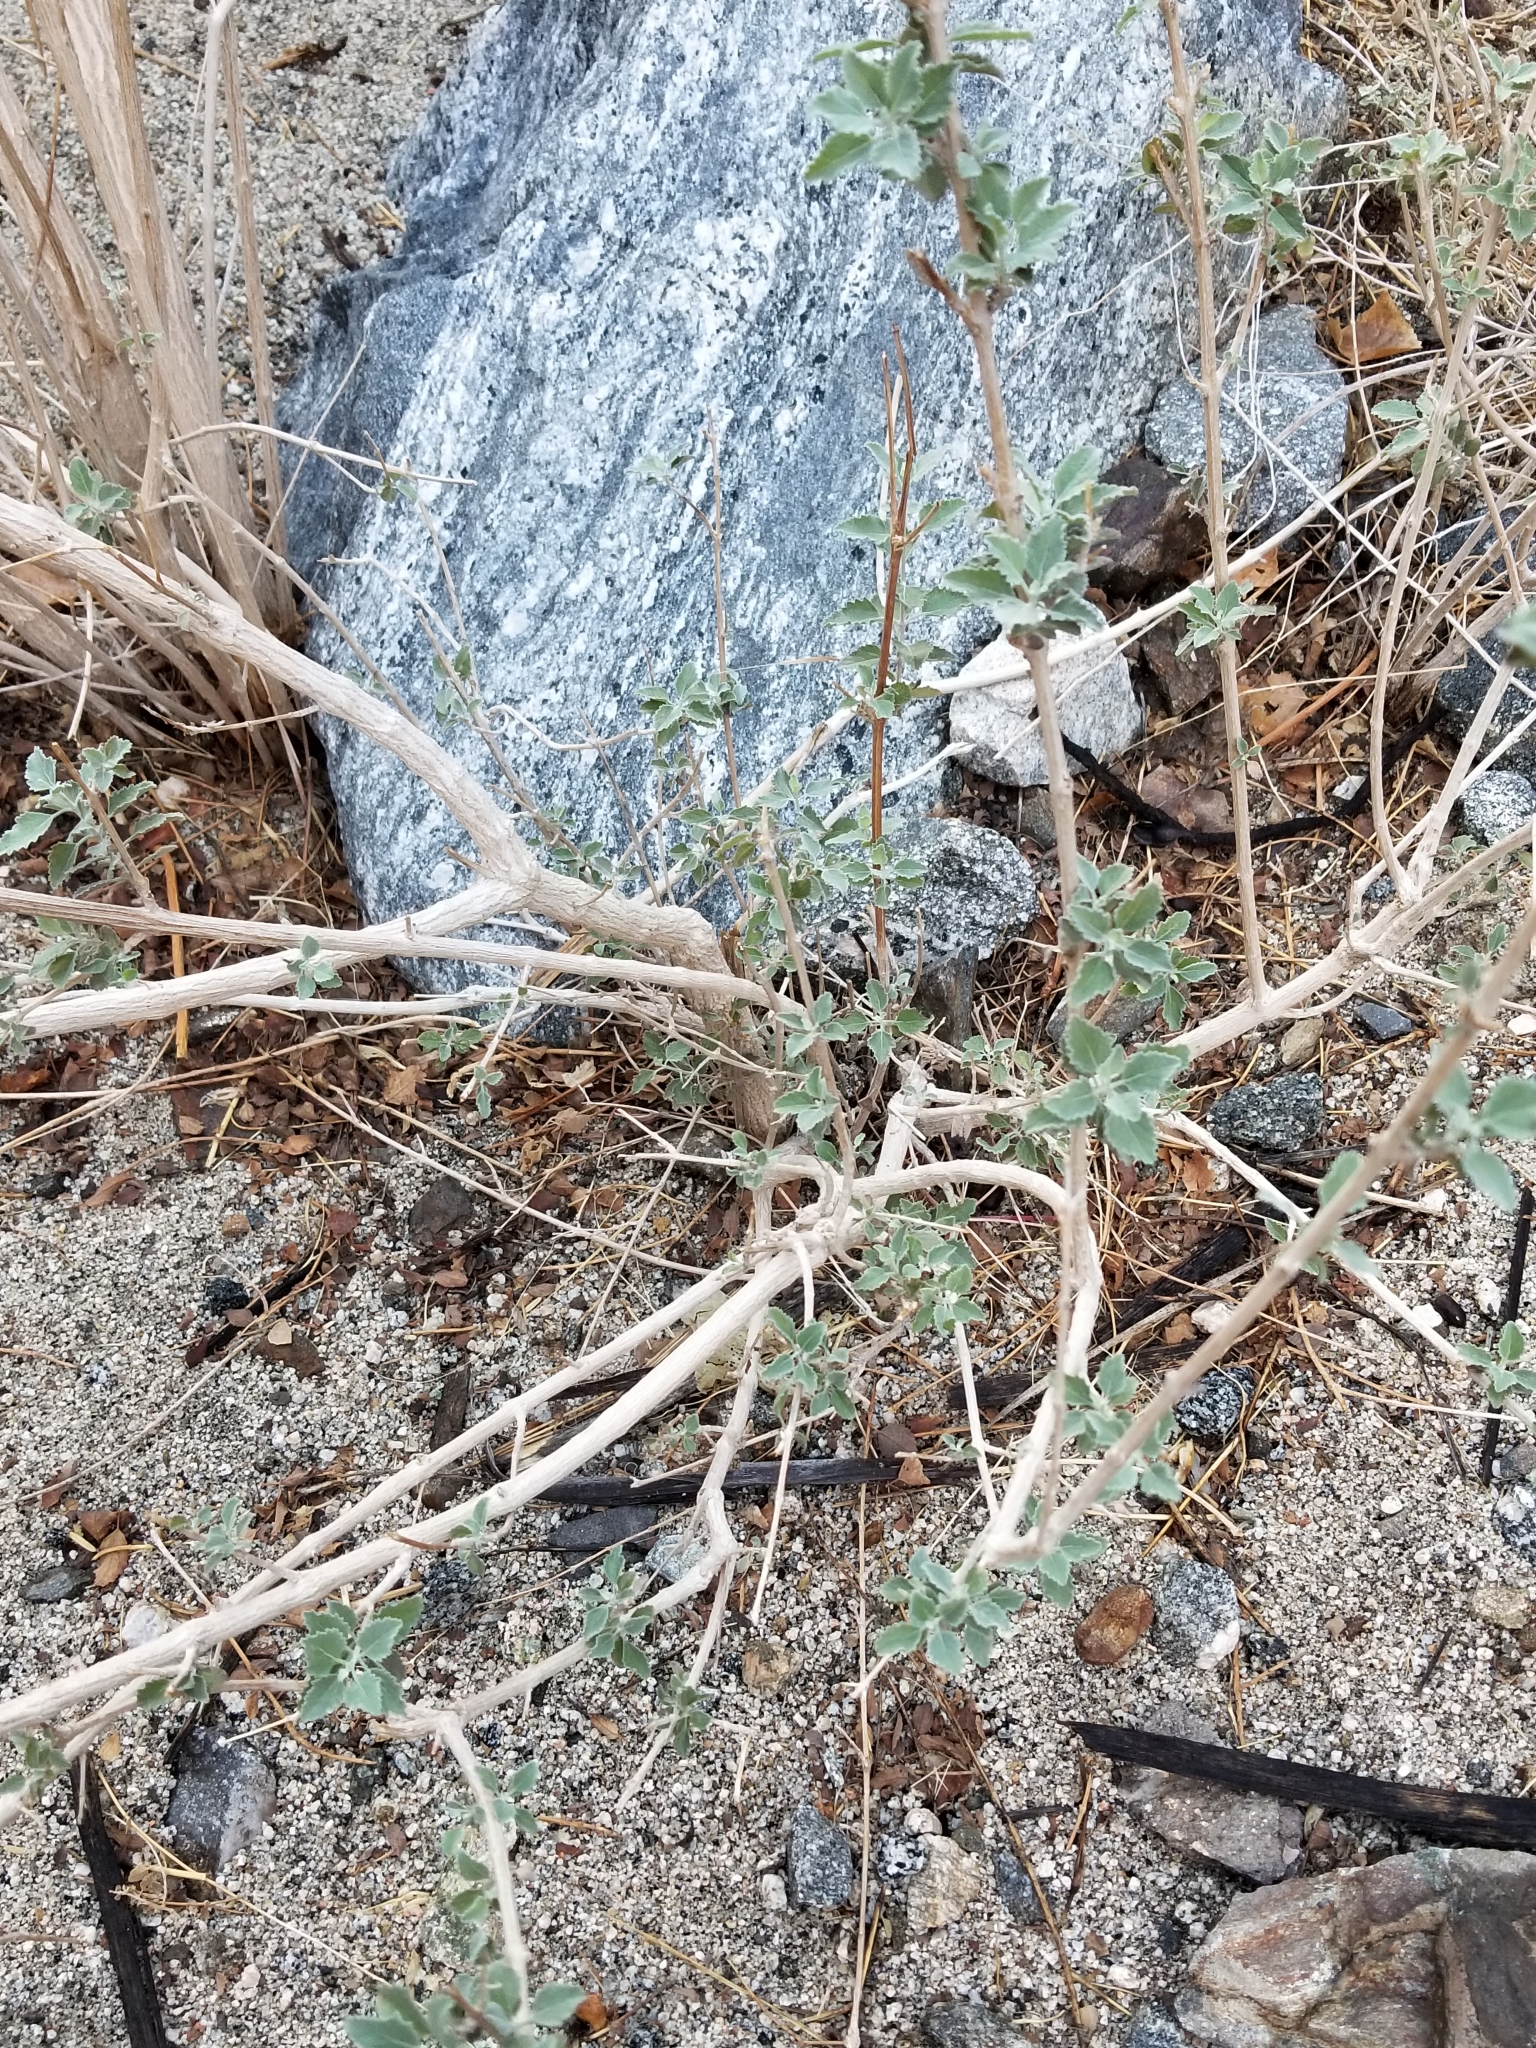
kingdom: Plantae
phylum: Tracheophyta
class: Magnoliopsida
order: Lamiales
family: Lamiaceae
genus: Condea
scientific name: Condea emoryi
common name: Chia
